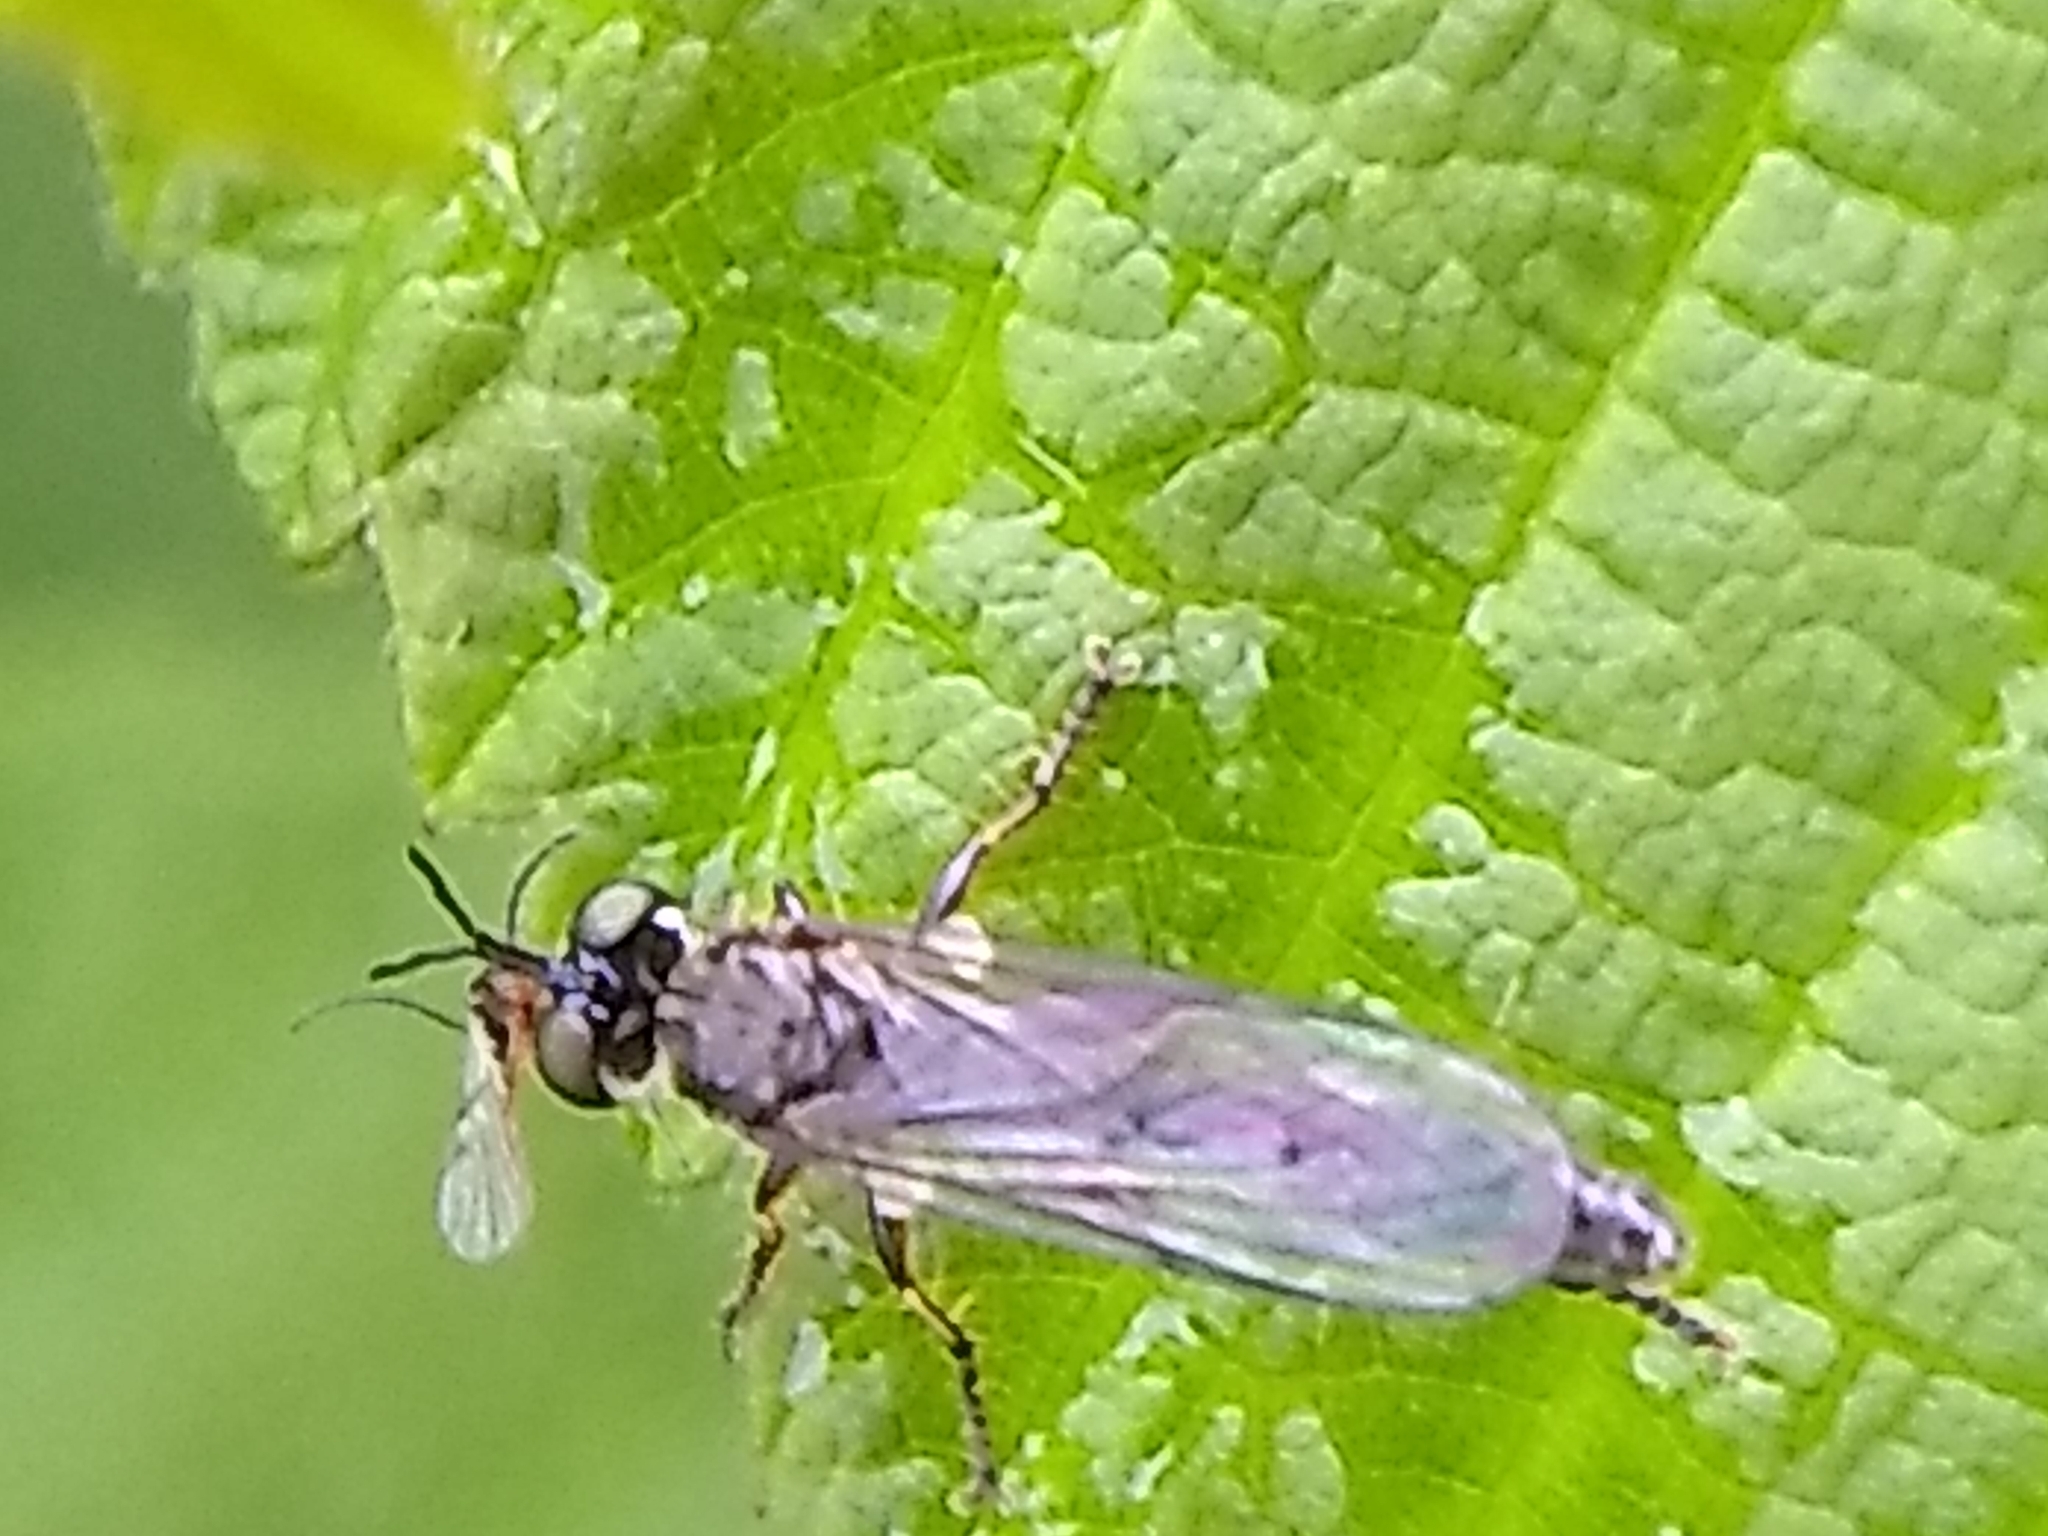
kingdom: Animalia
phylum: Arthropoda
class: Insecta
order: Diptera
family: Asilidae
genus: Dioctria
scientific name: Dioctria hyalipennis
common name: Stripe-legged robberfly
